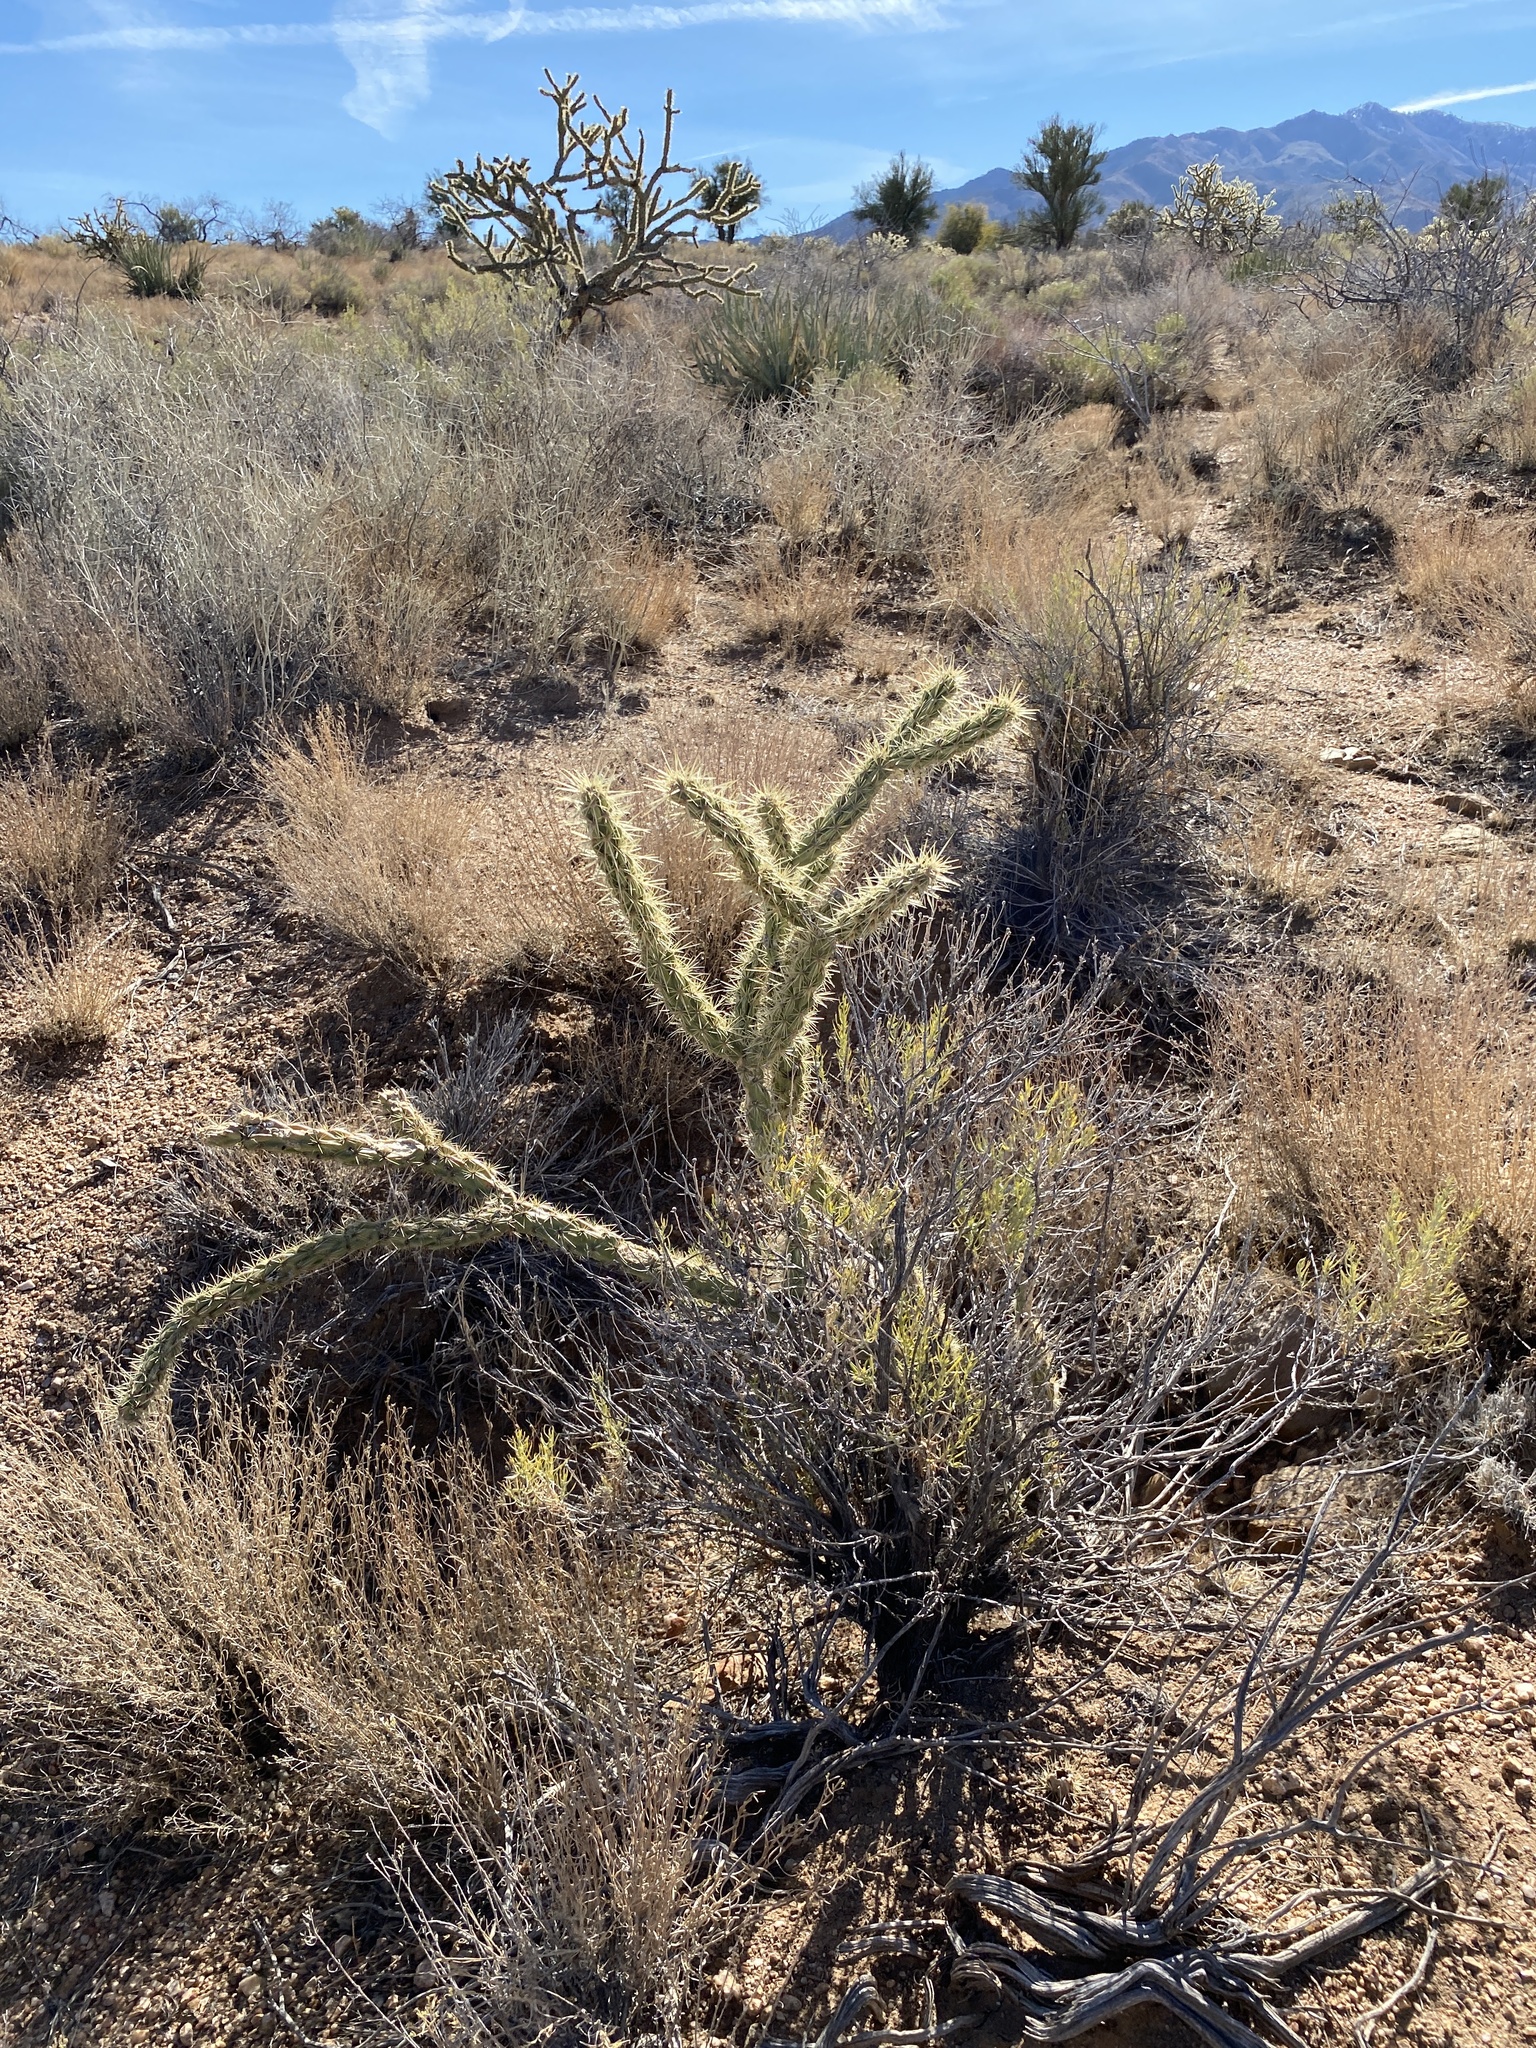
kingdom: Plantae
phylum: Tracheophyta
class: Magnoliopsida
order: Caryophyllales
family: Cactaceae
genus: Cylindropuntia
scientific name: Cylindropuntia acanthocarpa
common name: Buckhorn cholla
